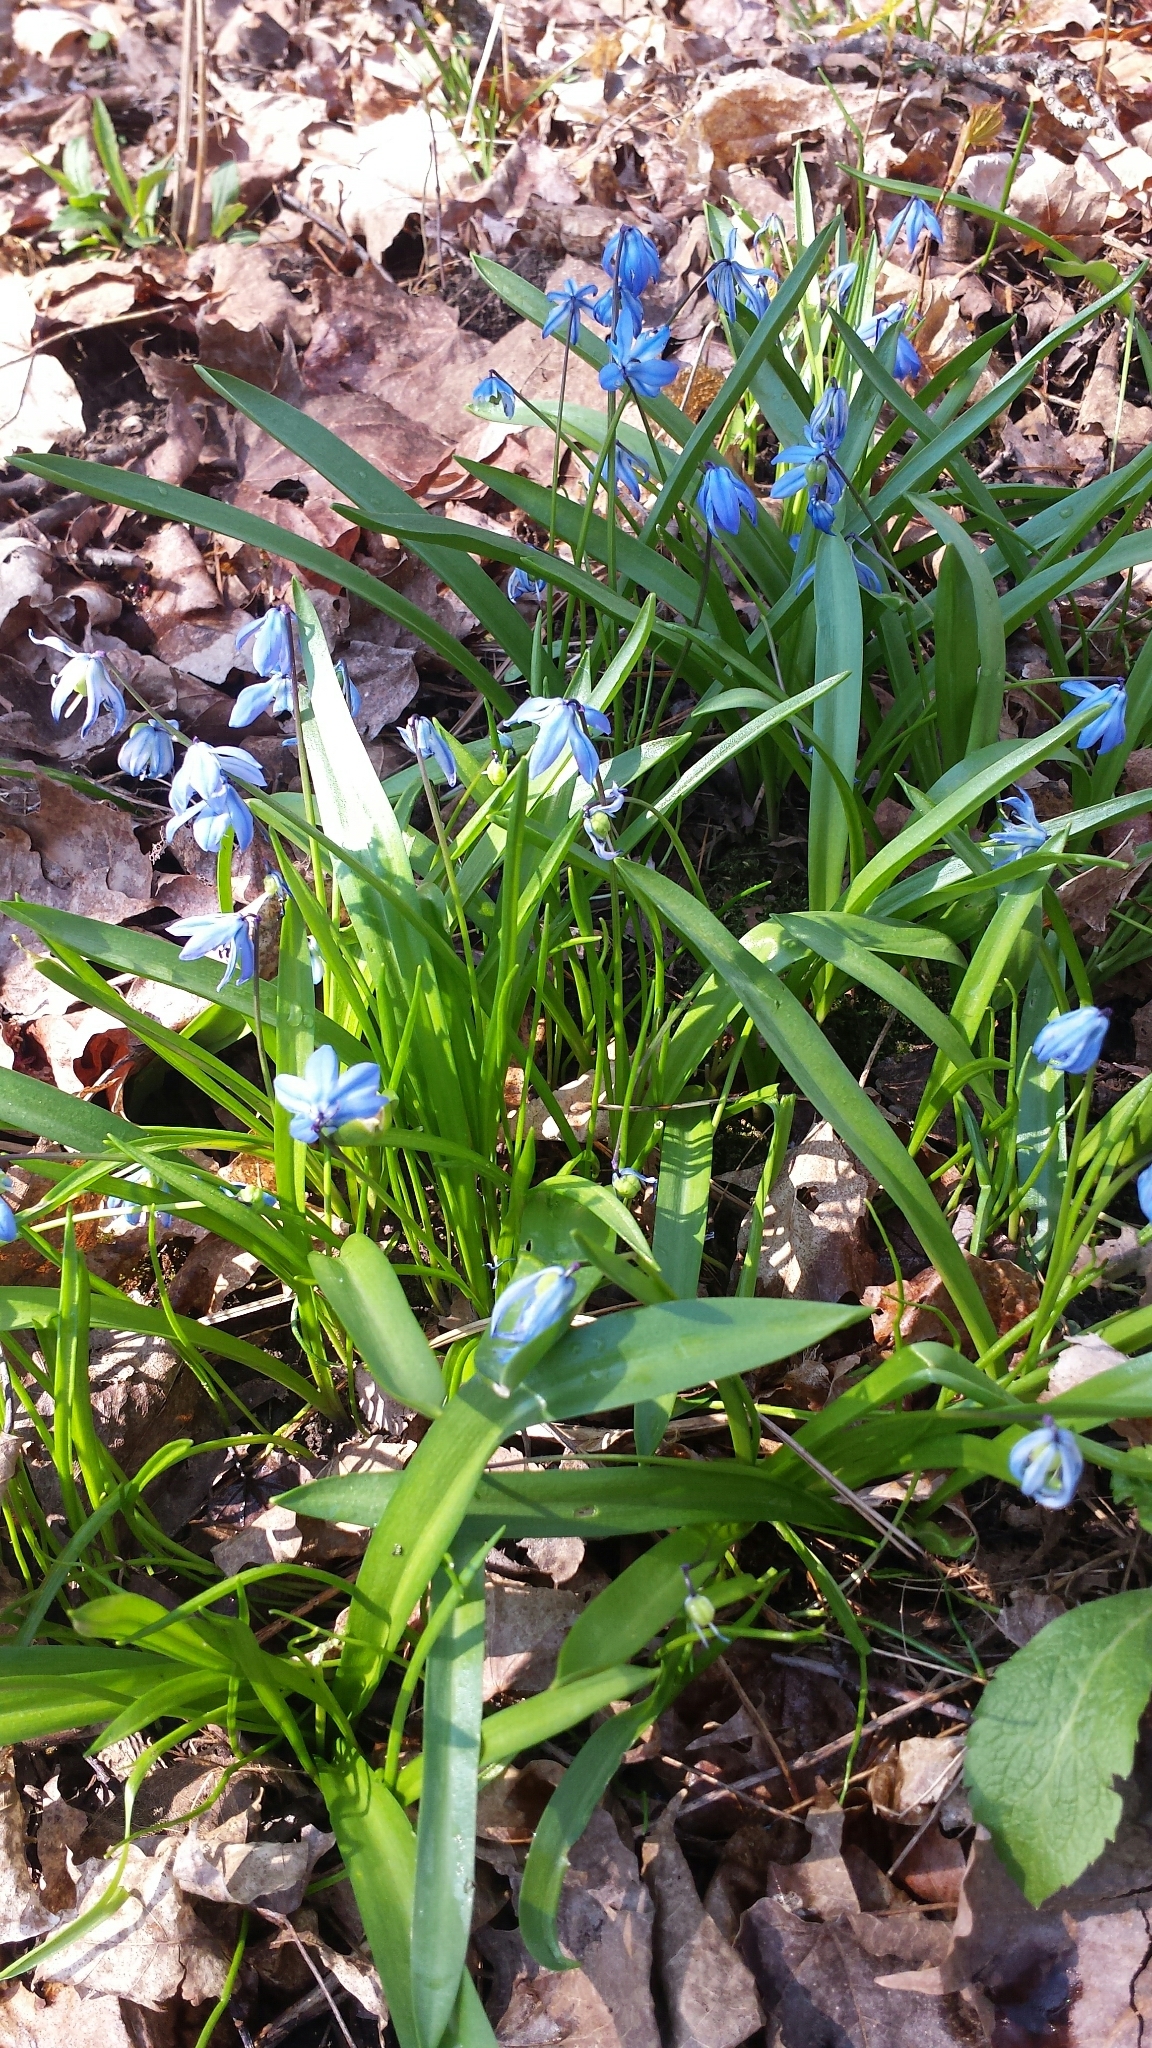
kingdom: Plantae
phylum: Tracheophyta
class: Liliopsida
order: Asparagales
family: Asparagaceae
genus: Scilla
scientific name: Scilla siberica
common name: Siberian squill
